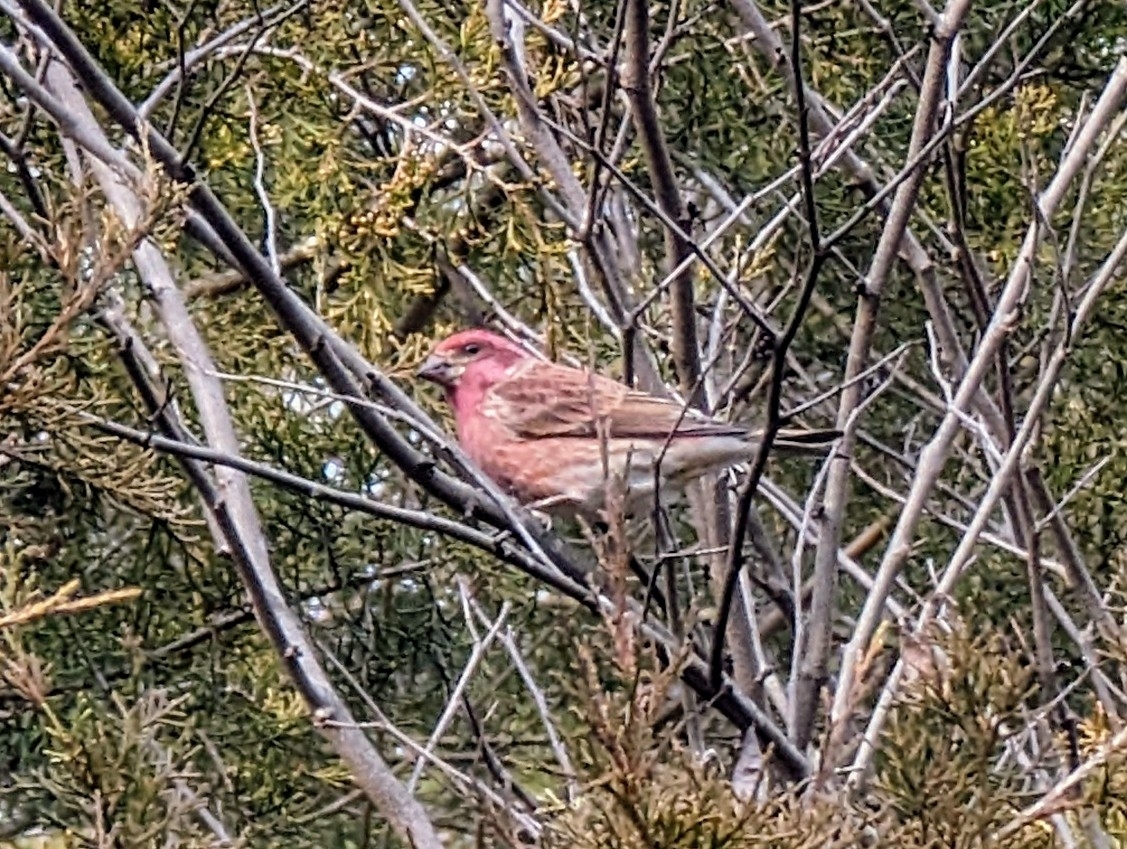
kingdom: Animalia
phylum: Chordata
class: Aves
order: Passeriformes
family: Fringillidae
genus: Haemorhous
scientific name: Haemorhous purpureus
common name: Purple finch
